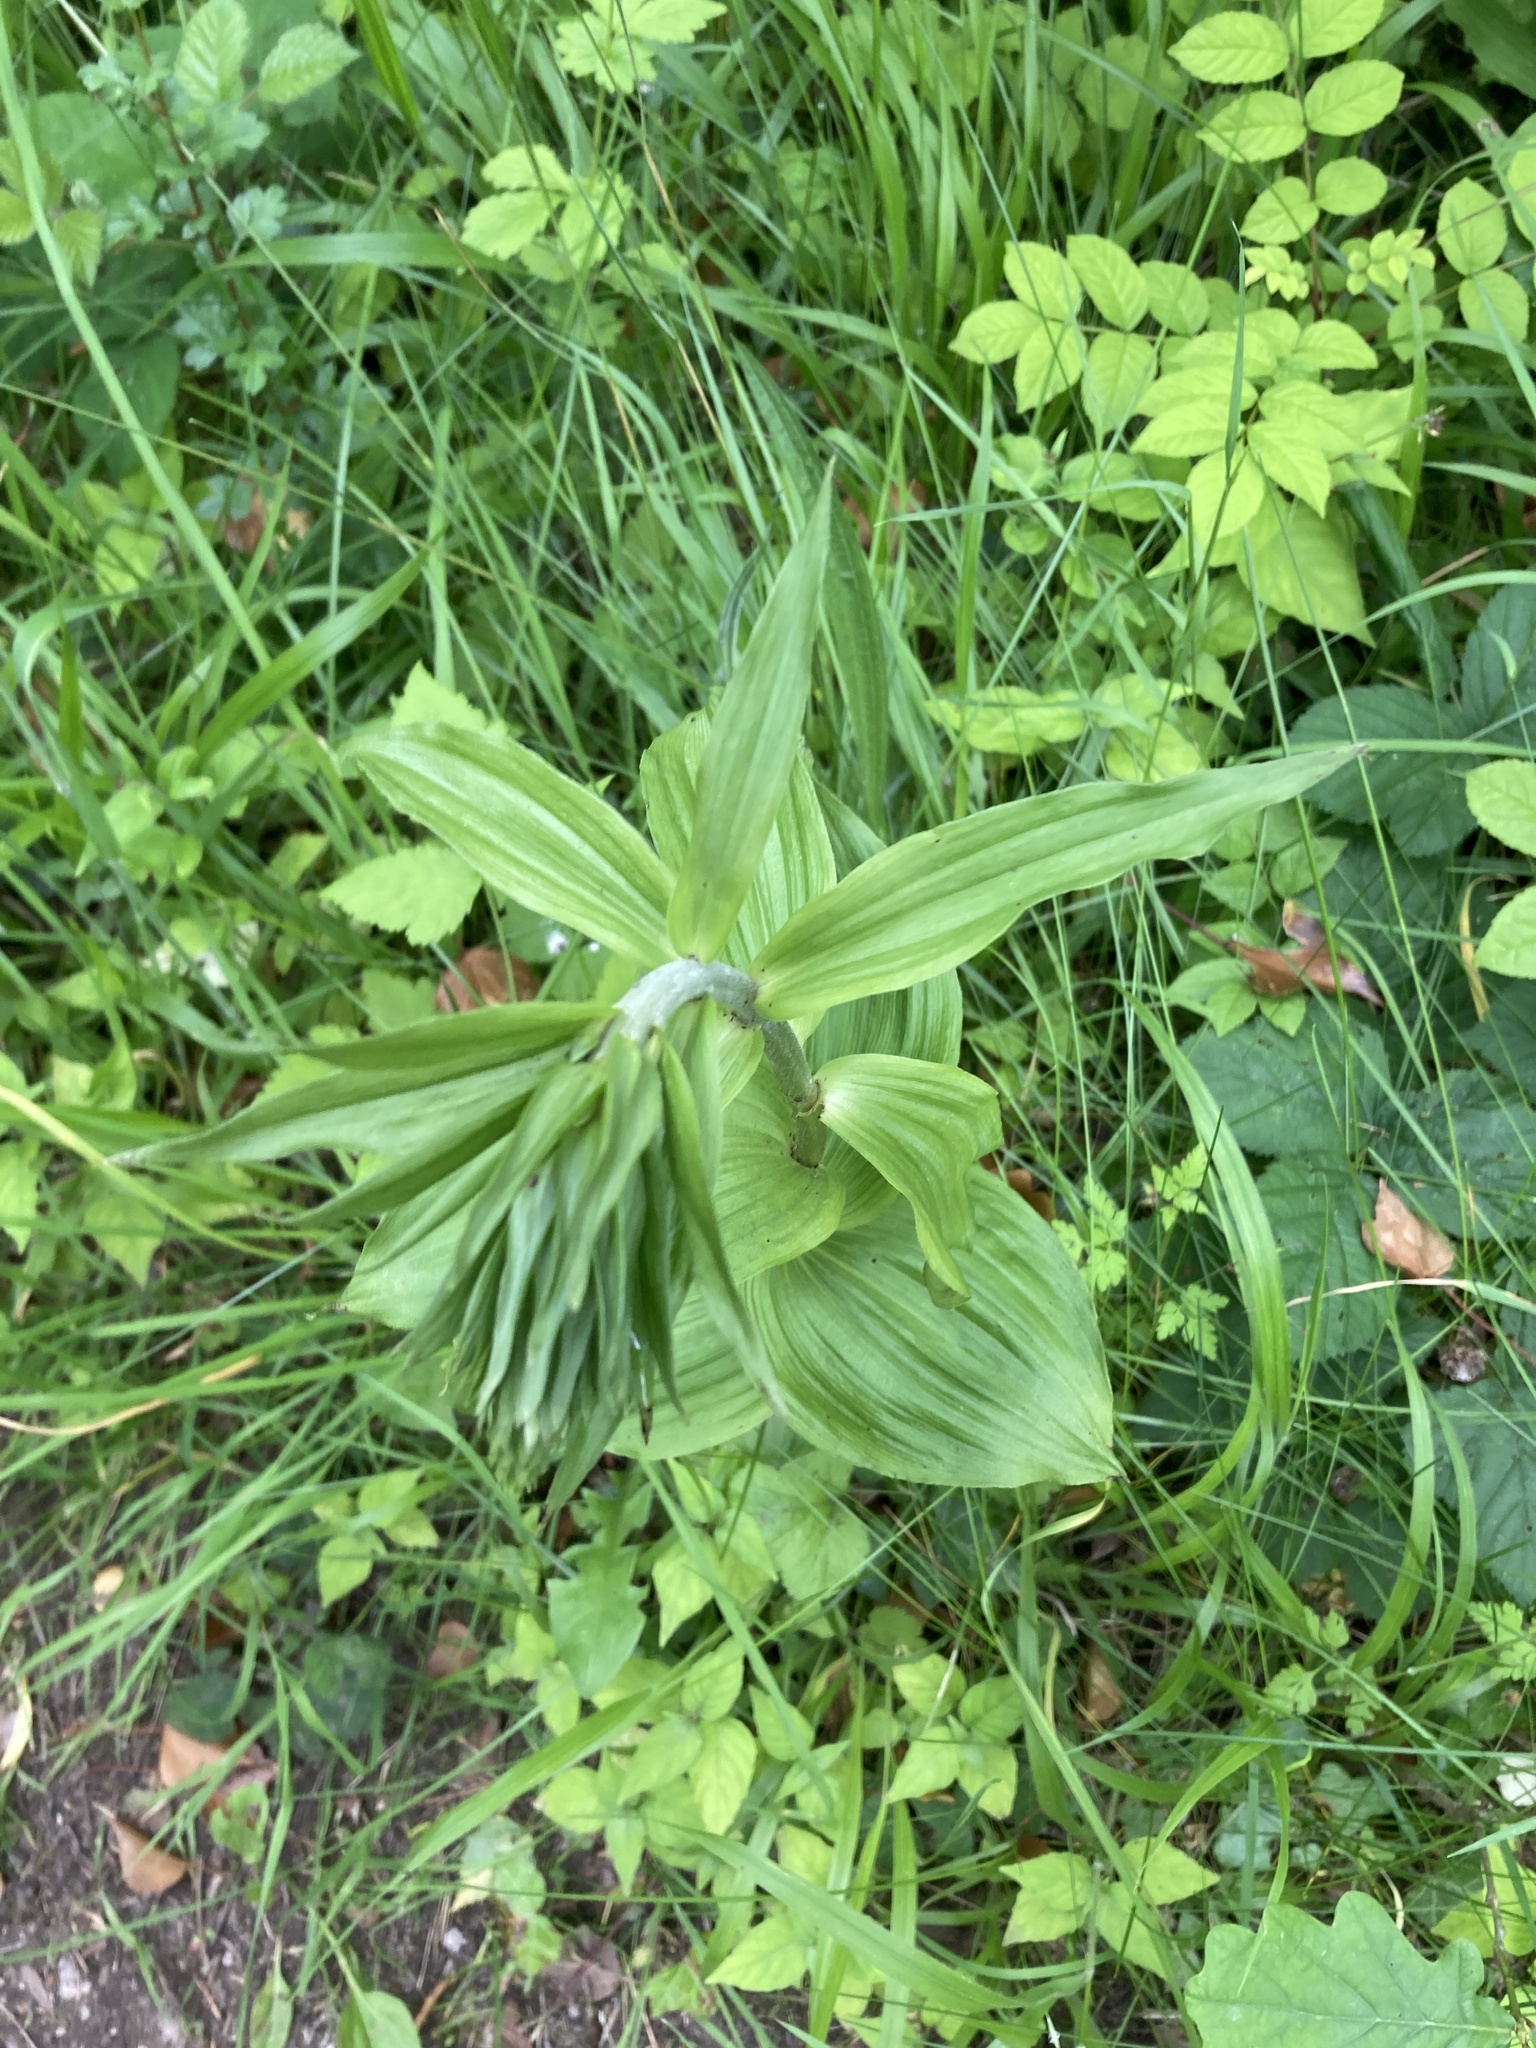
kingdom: Plantae
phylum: Tracheophyta
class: Liliopsida
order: Asparagales
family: Orchidaceae
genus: Epipactis
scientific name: Epipactis helleborine
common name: Broad-leaved helleborine
